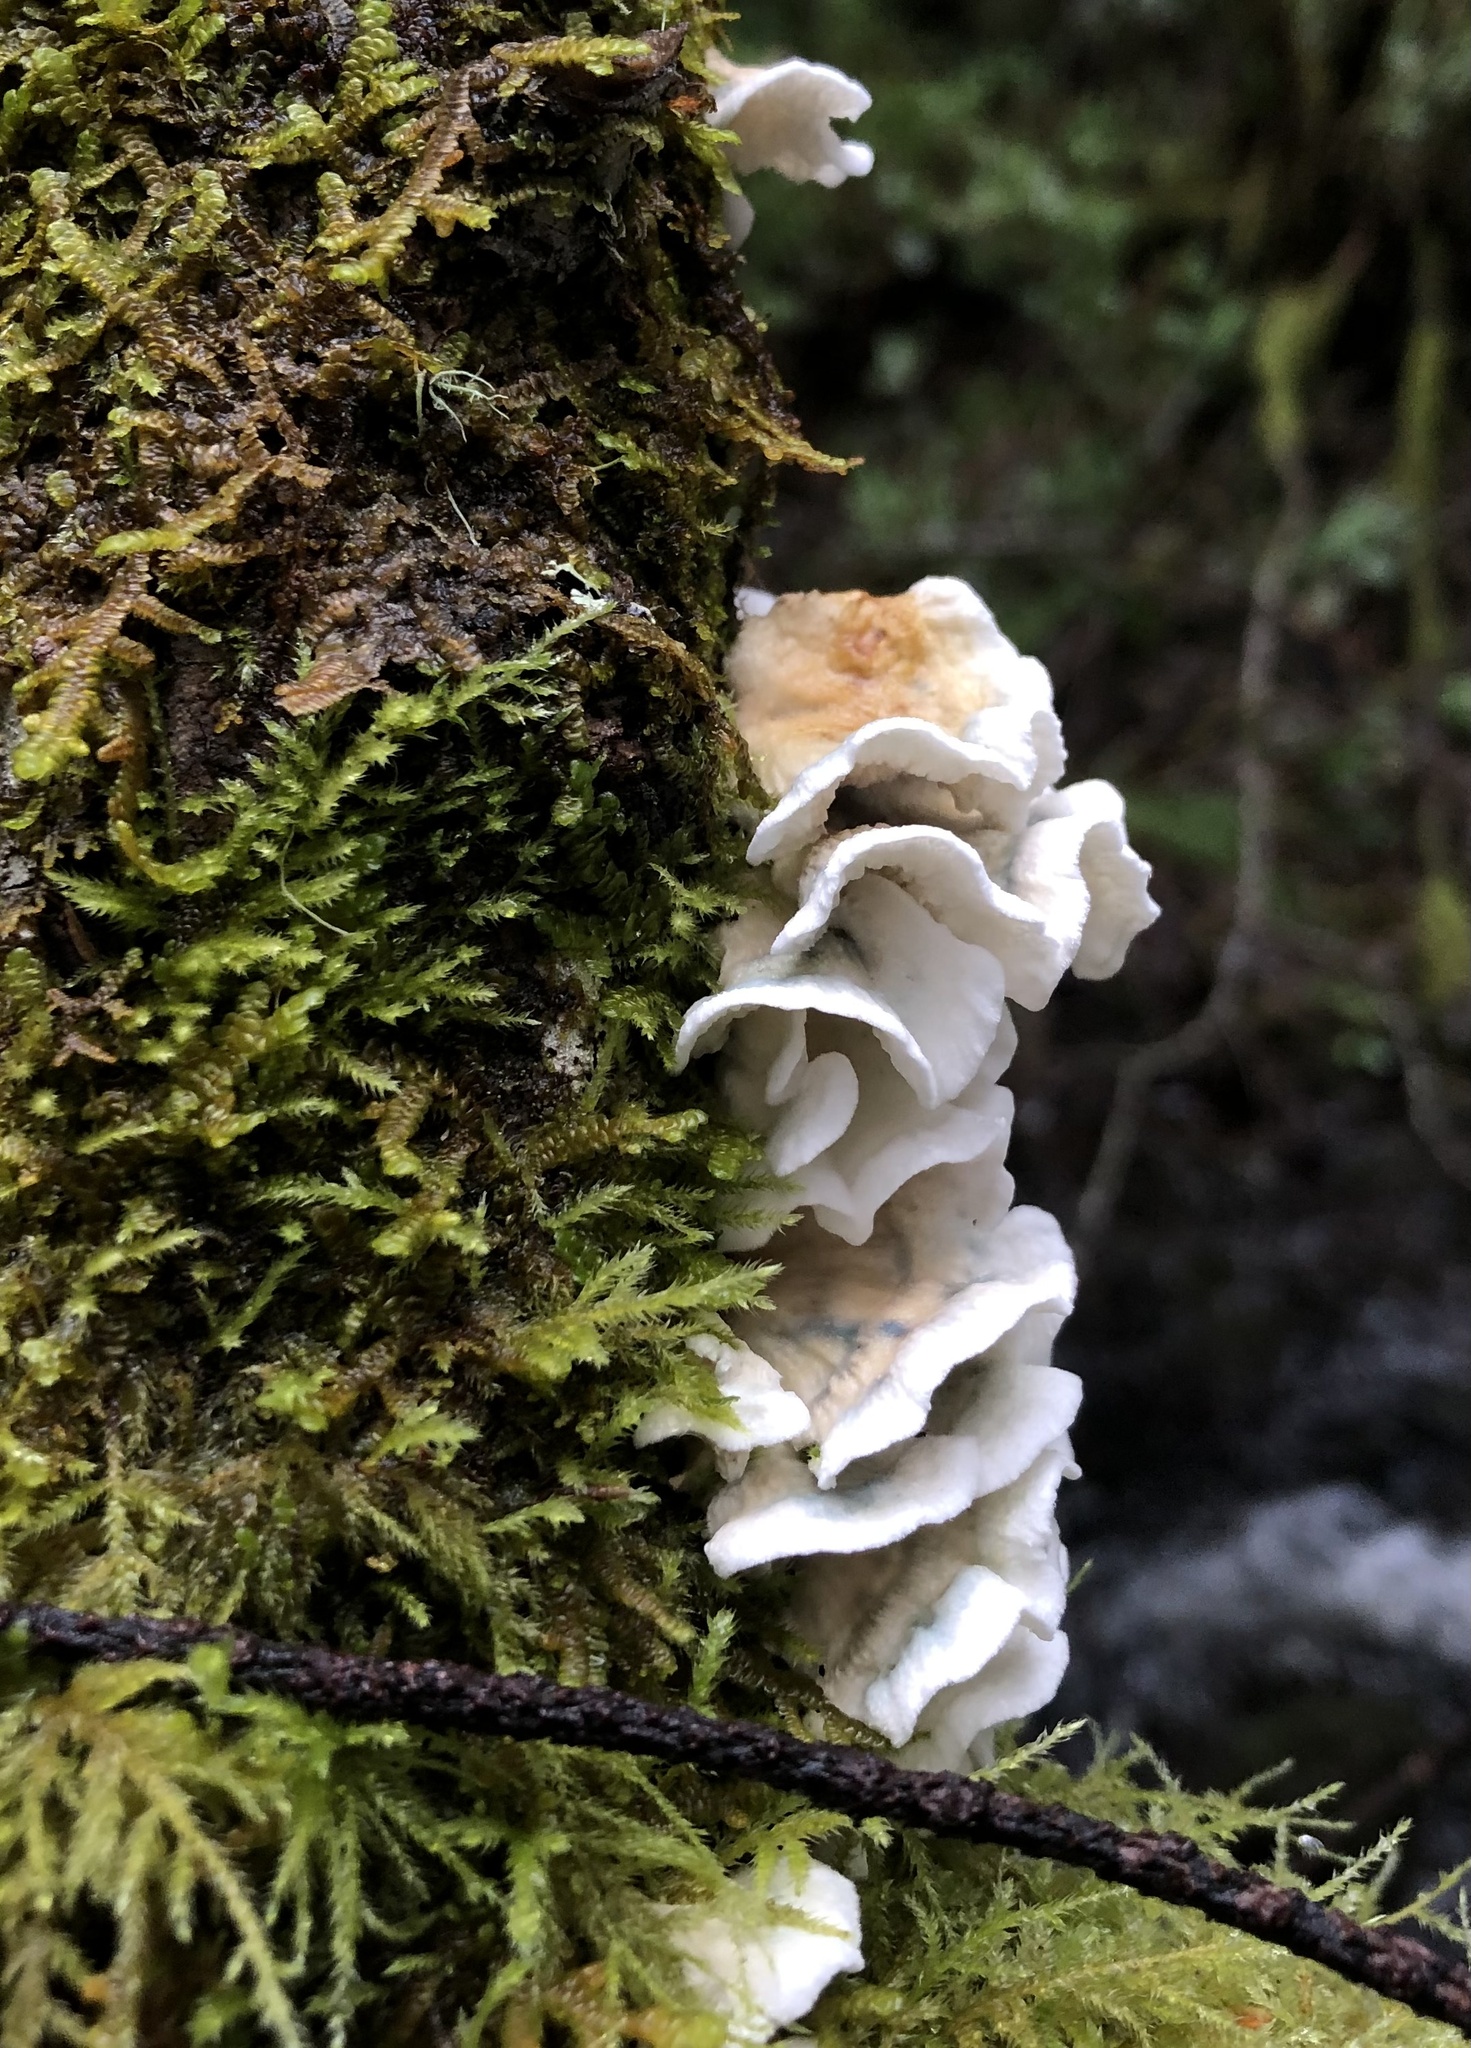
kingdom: Fungi
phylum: Basidiomycota
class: Agaricomycetes
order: Agaricales
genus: Plicatura
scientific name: Plicatura nivea
